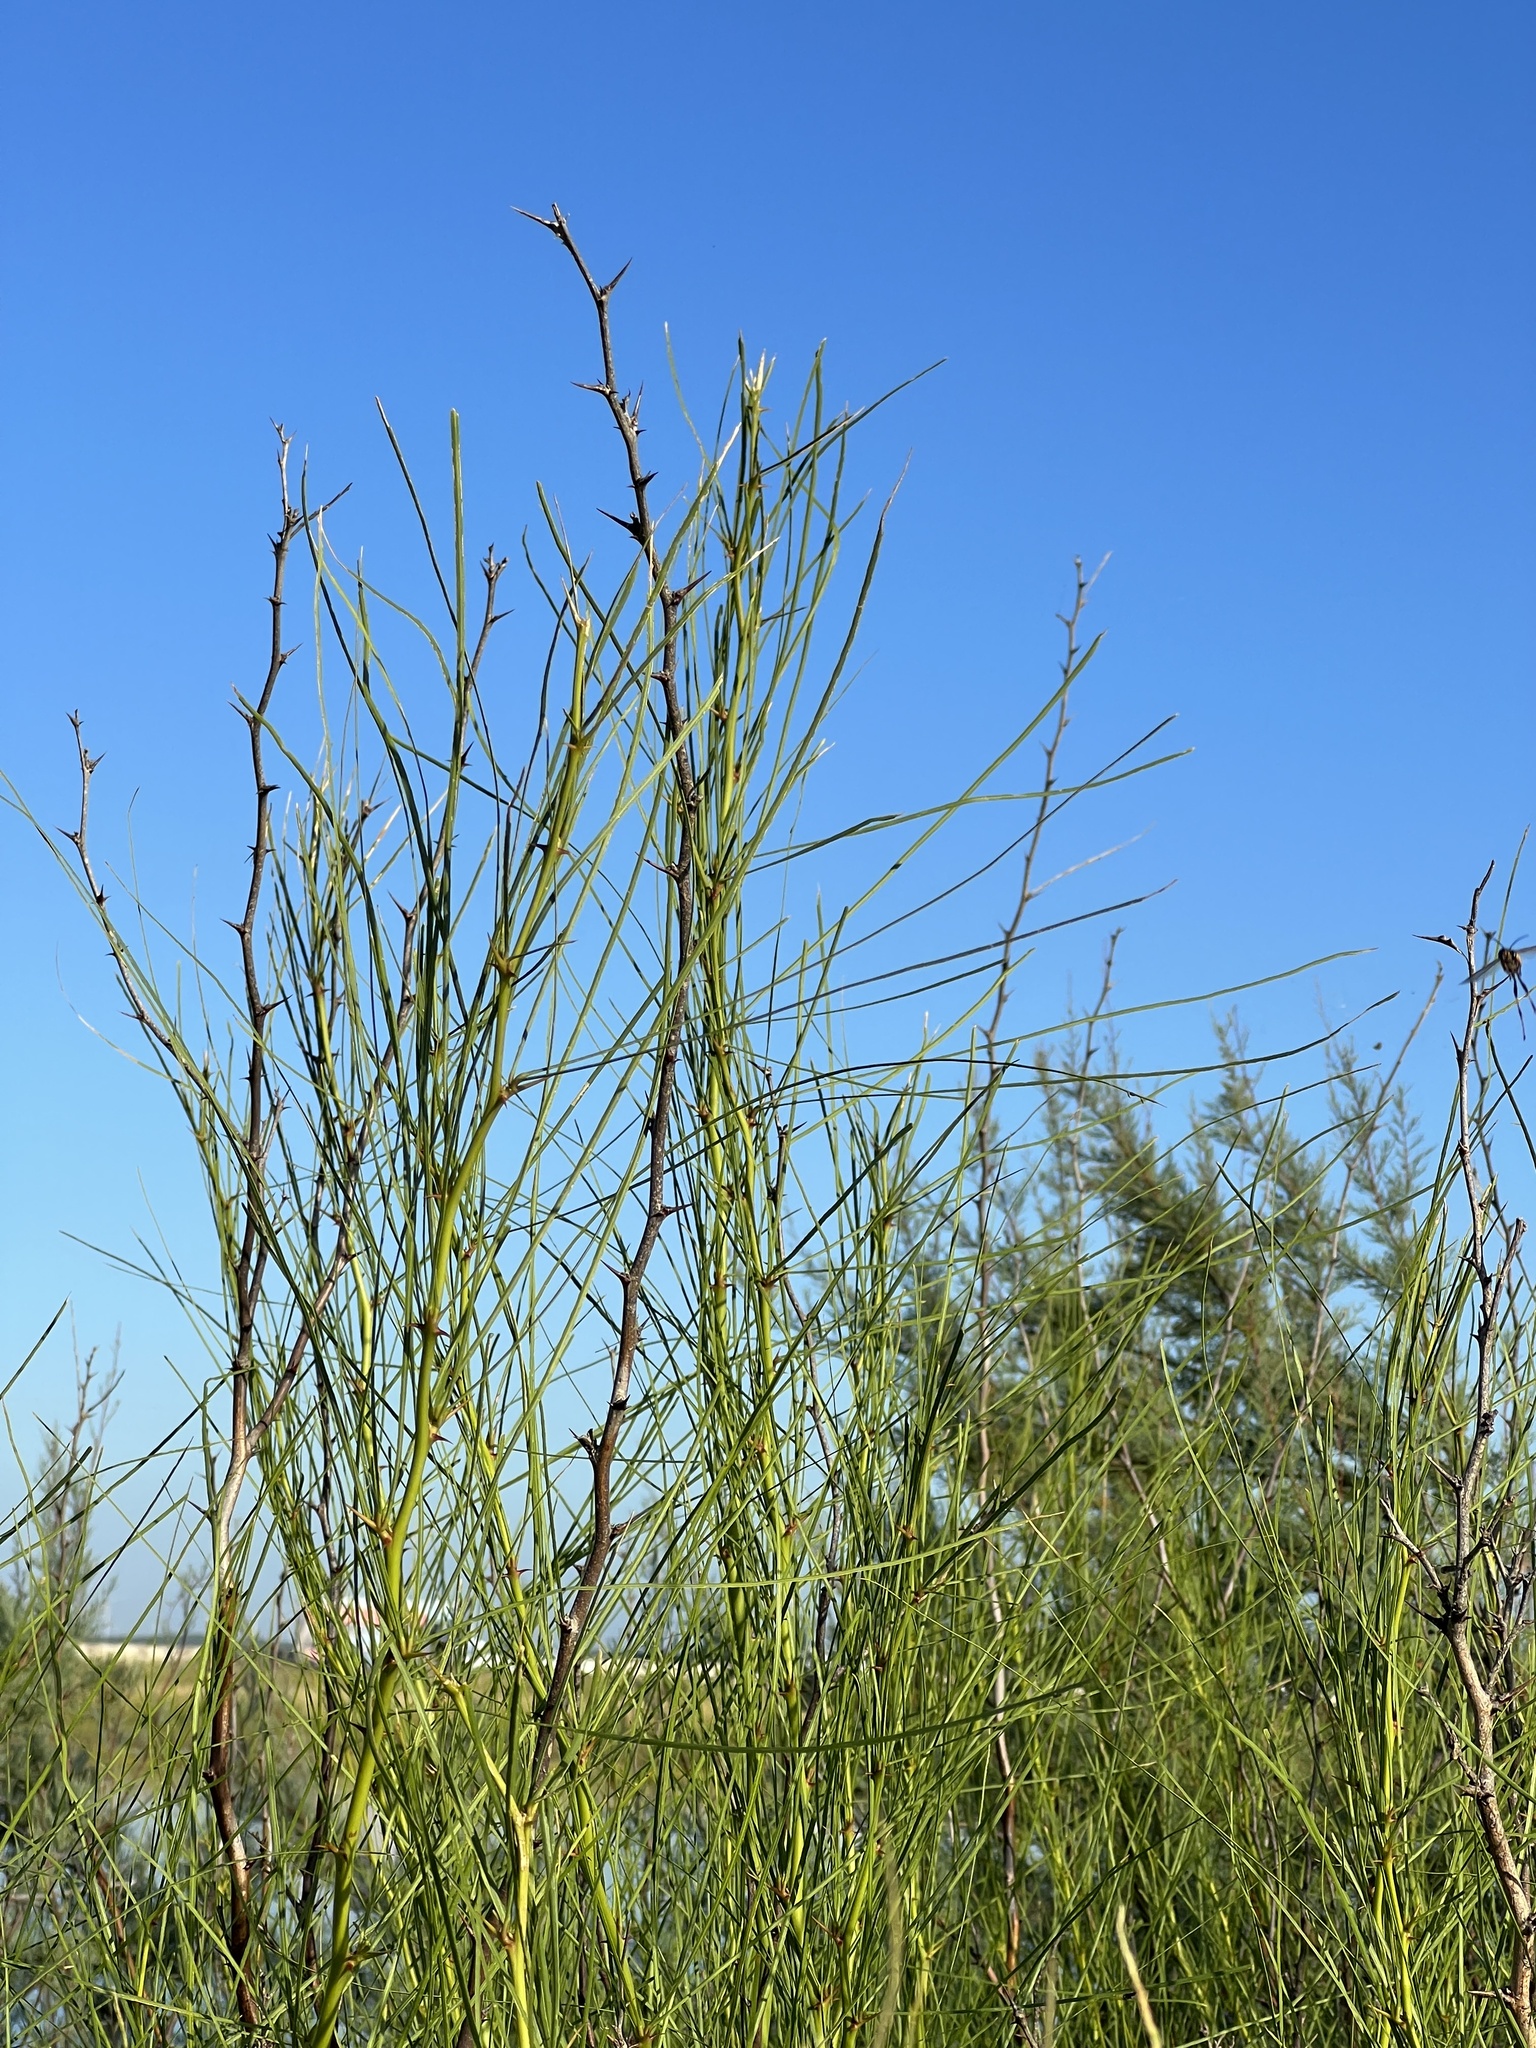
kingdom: Plantae
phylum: Tracheophyta
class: Magnoliopsida
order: Fabales
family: Fabaceae
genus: Parkinsonia
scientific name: Parkinsonia aculeata
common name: Jerusalem thorn
